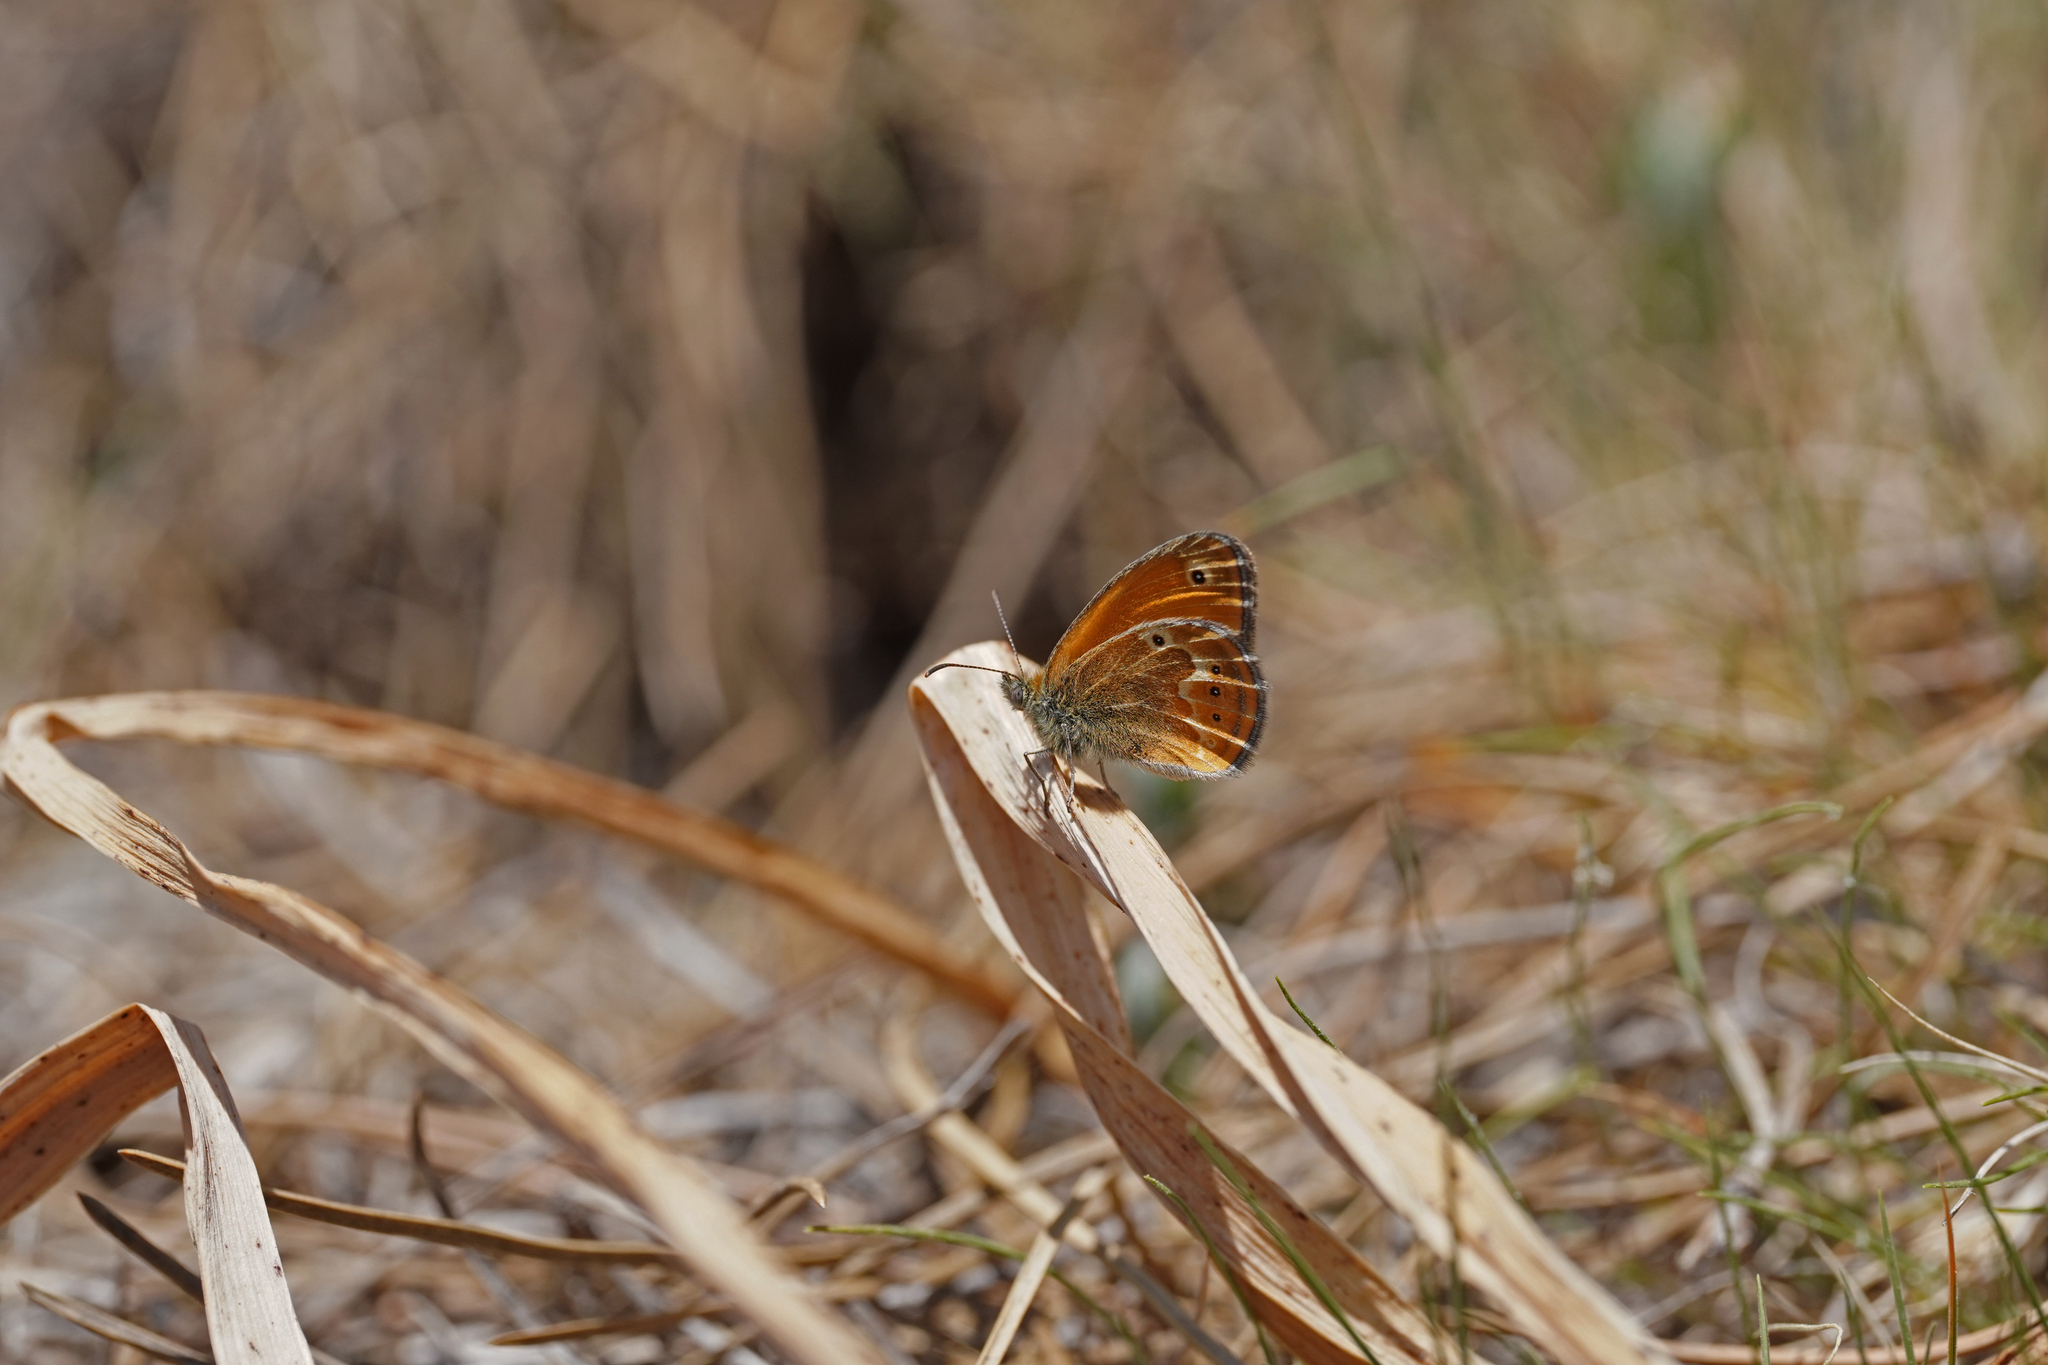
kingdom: Animalia
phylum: Arthropoda
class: Insecta
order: Lepidoptera
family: Nymphalidae
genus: Coenonympha
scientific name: Coenonympha corinna
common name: Corsican heath
